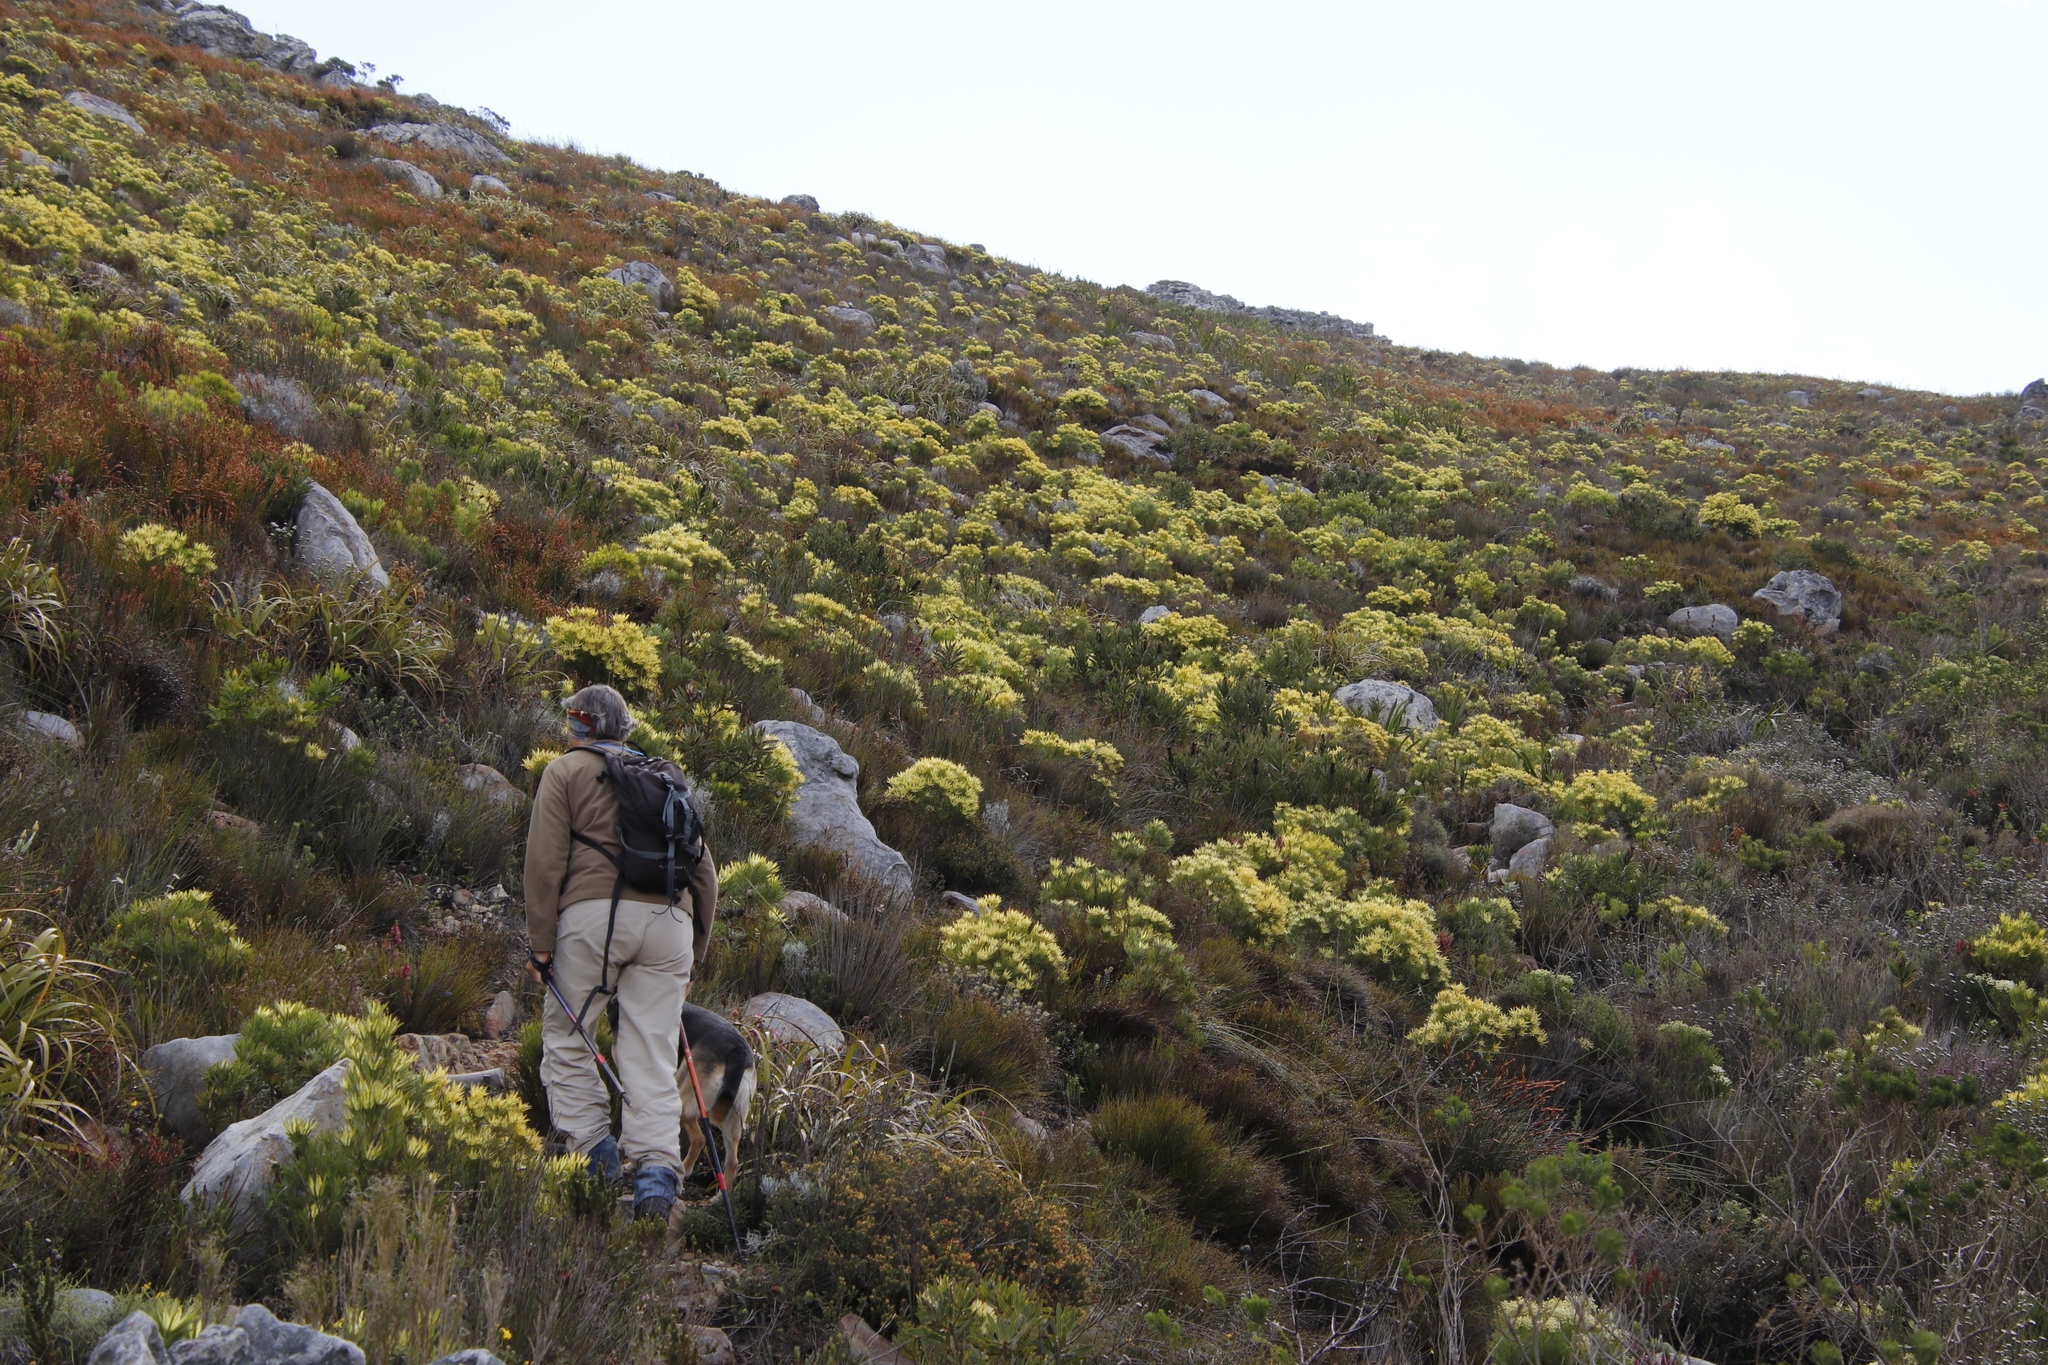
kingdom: Plantae
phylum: Tracheophyta
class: Magnoliopsida
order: Proteales
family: Proteaceae
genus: Leucadendron
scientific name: Leucadendron xanthoconus
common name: Sickle-leaf conebush
